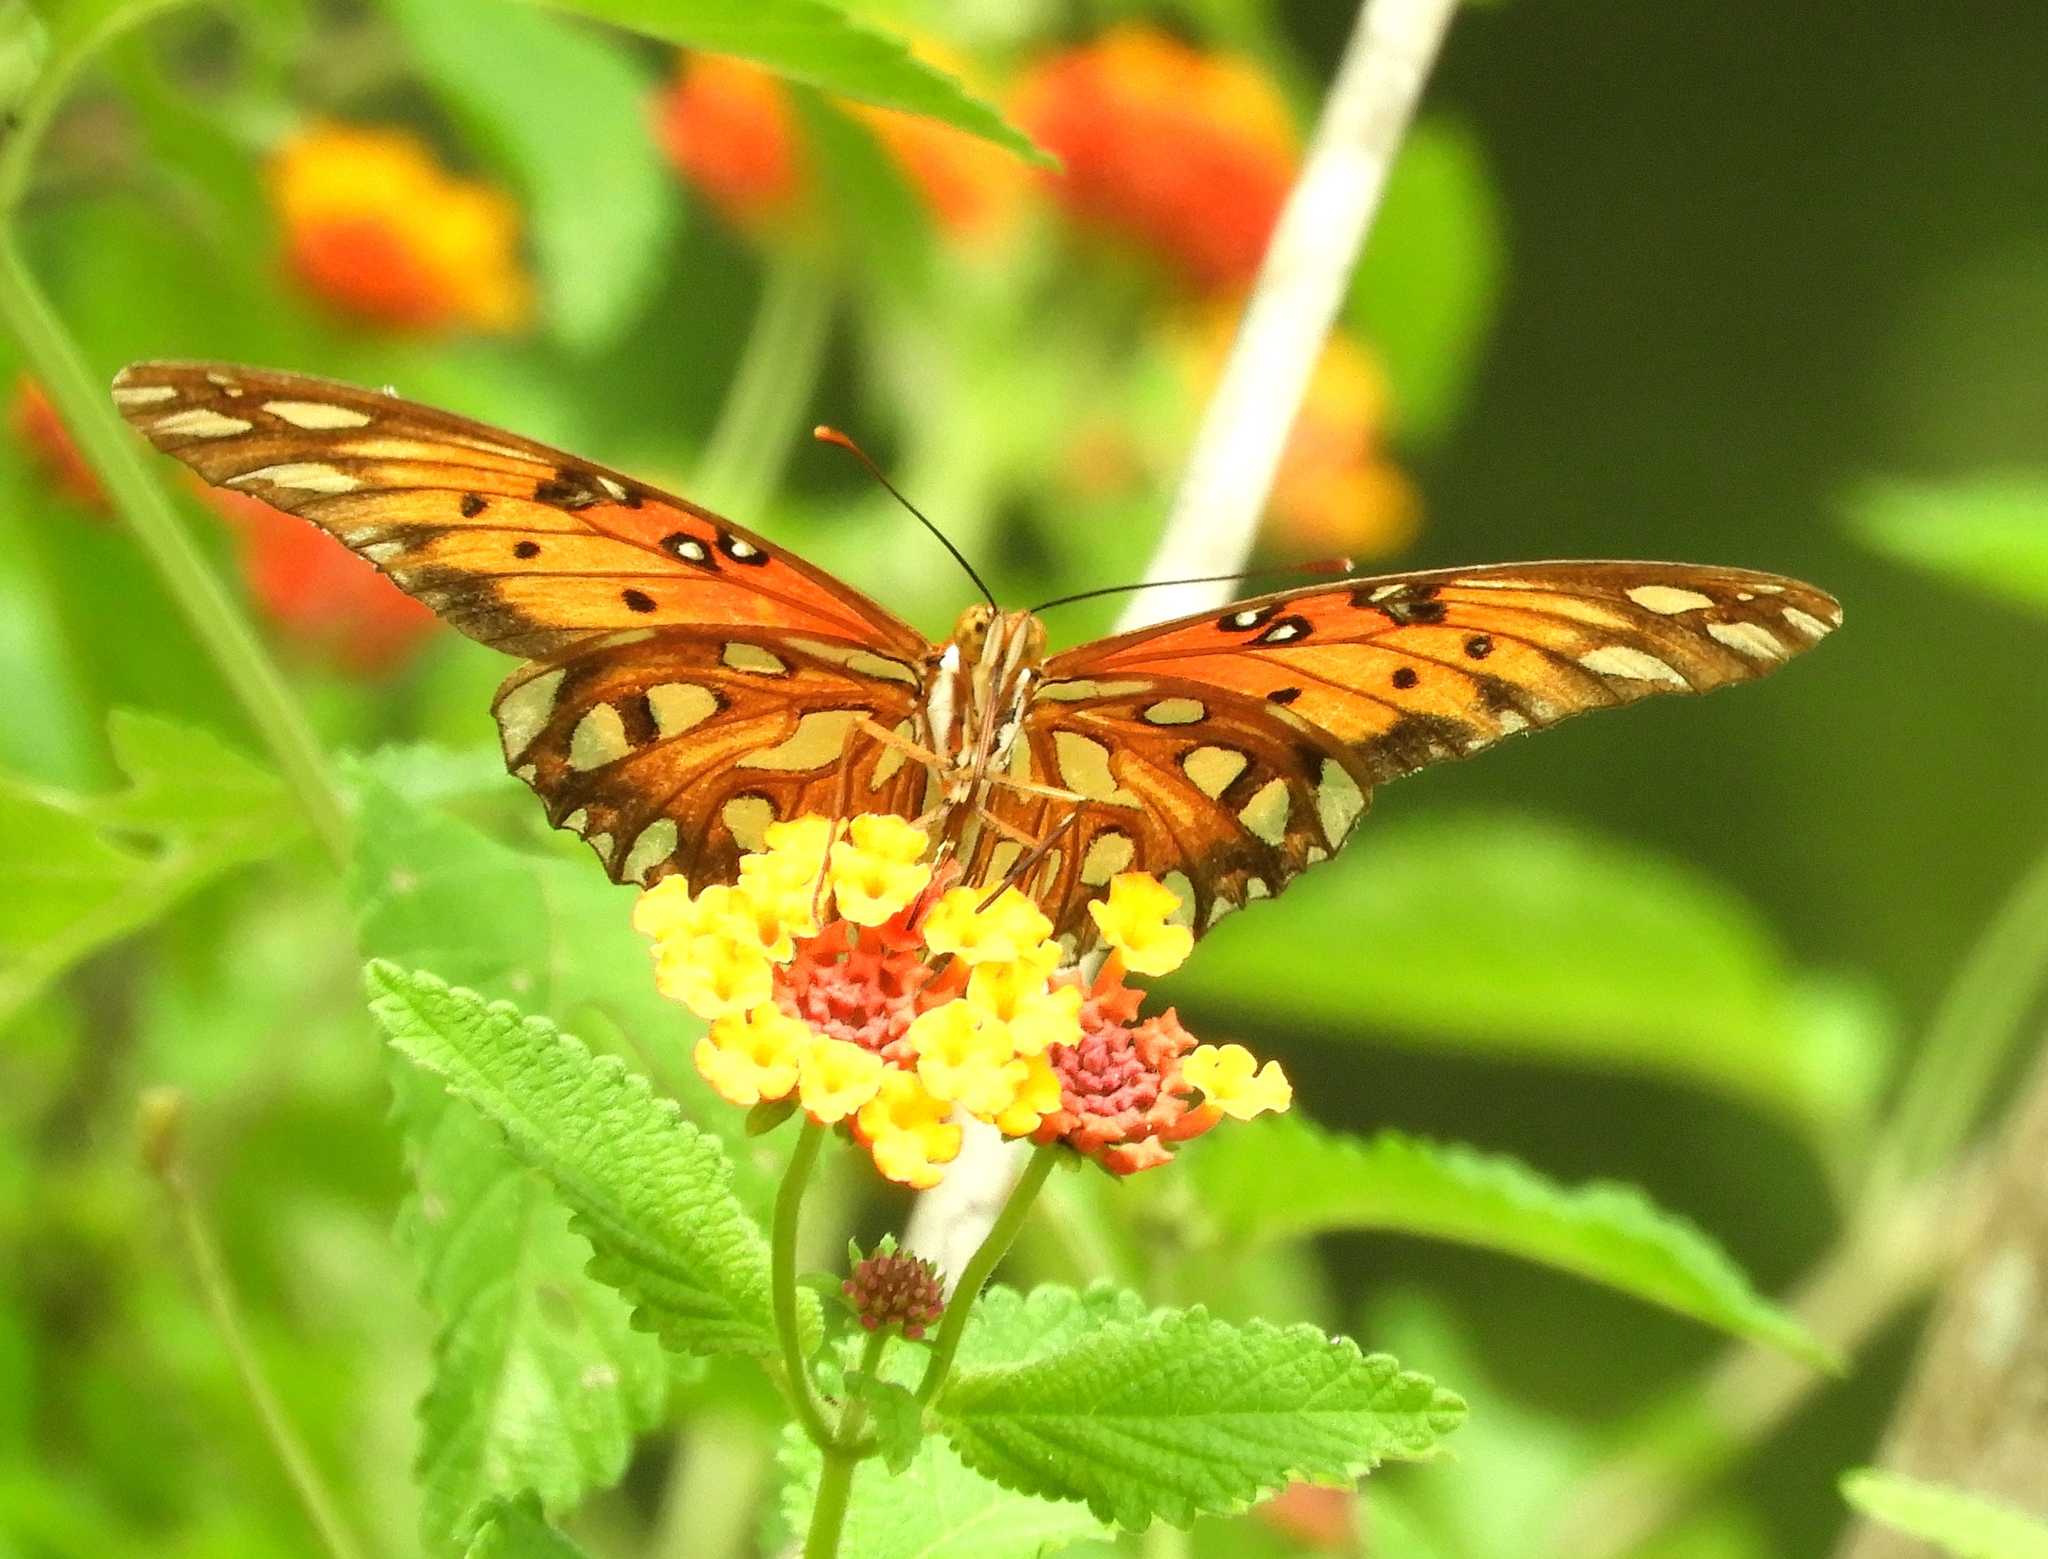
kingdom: Animalia
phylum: Arthropoda
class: Insecta
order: Lepidoptera
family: Nymphalidae
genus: Dione
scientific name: Dione vanillae
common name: Gulf fritillary
